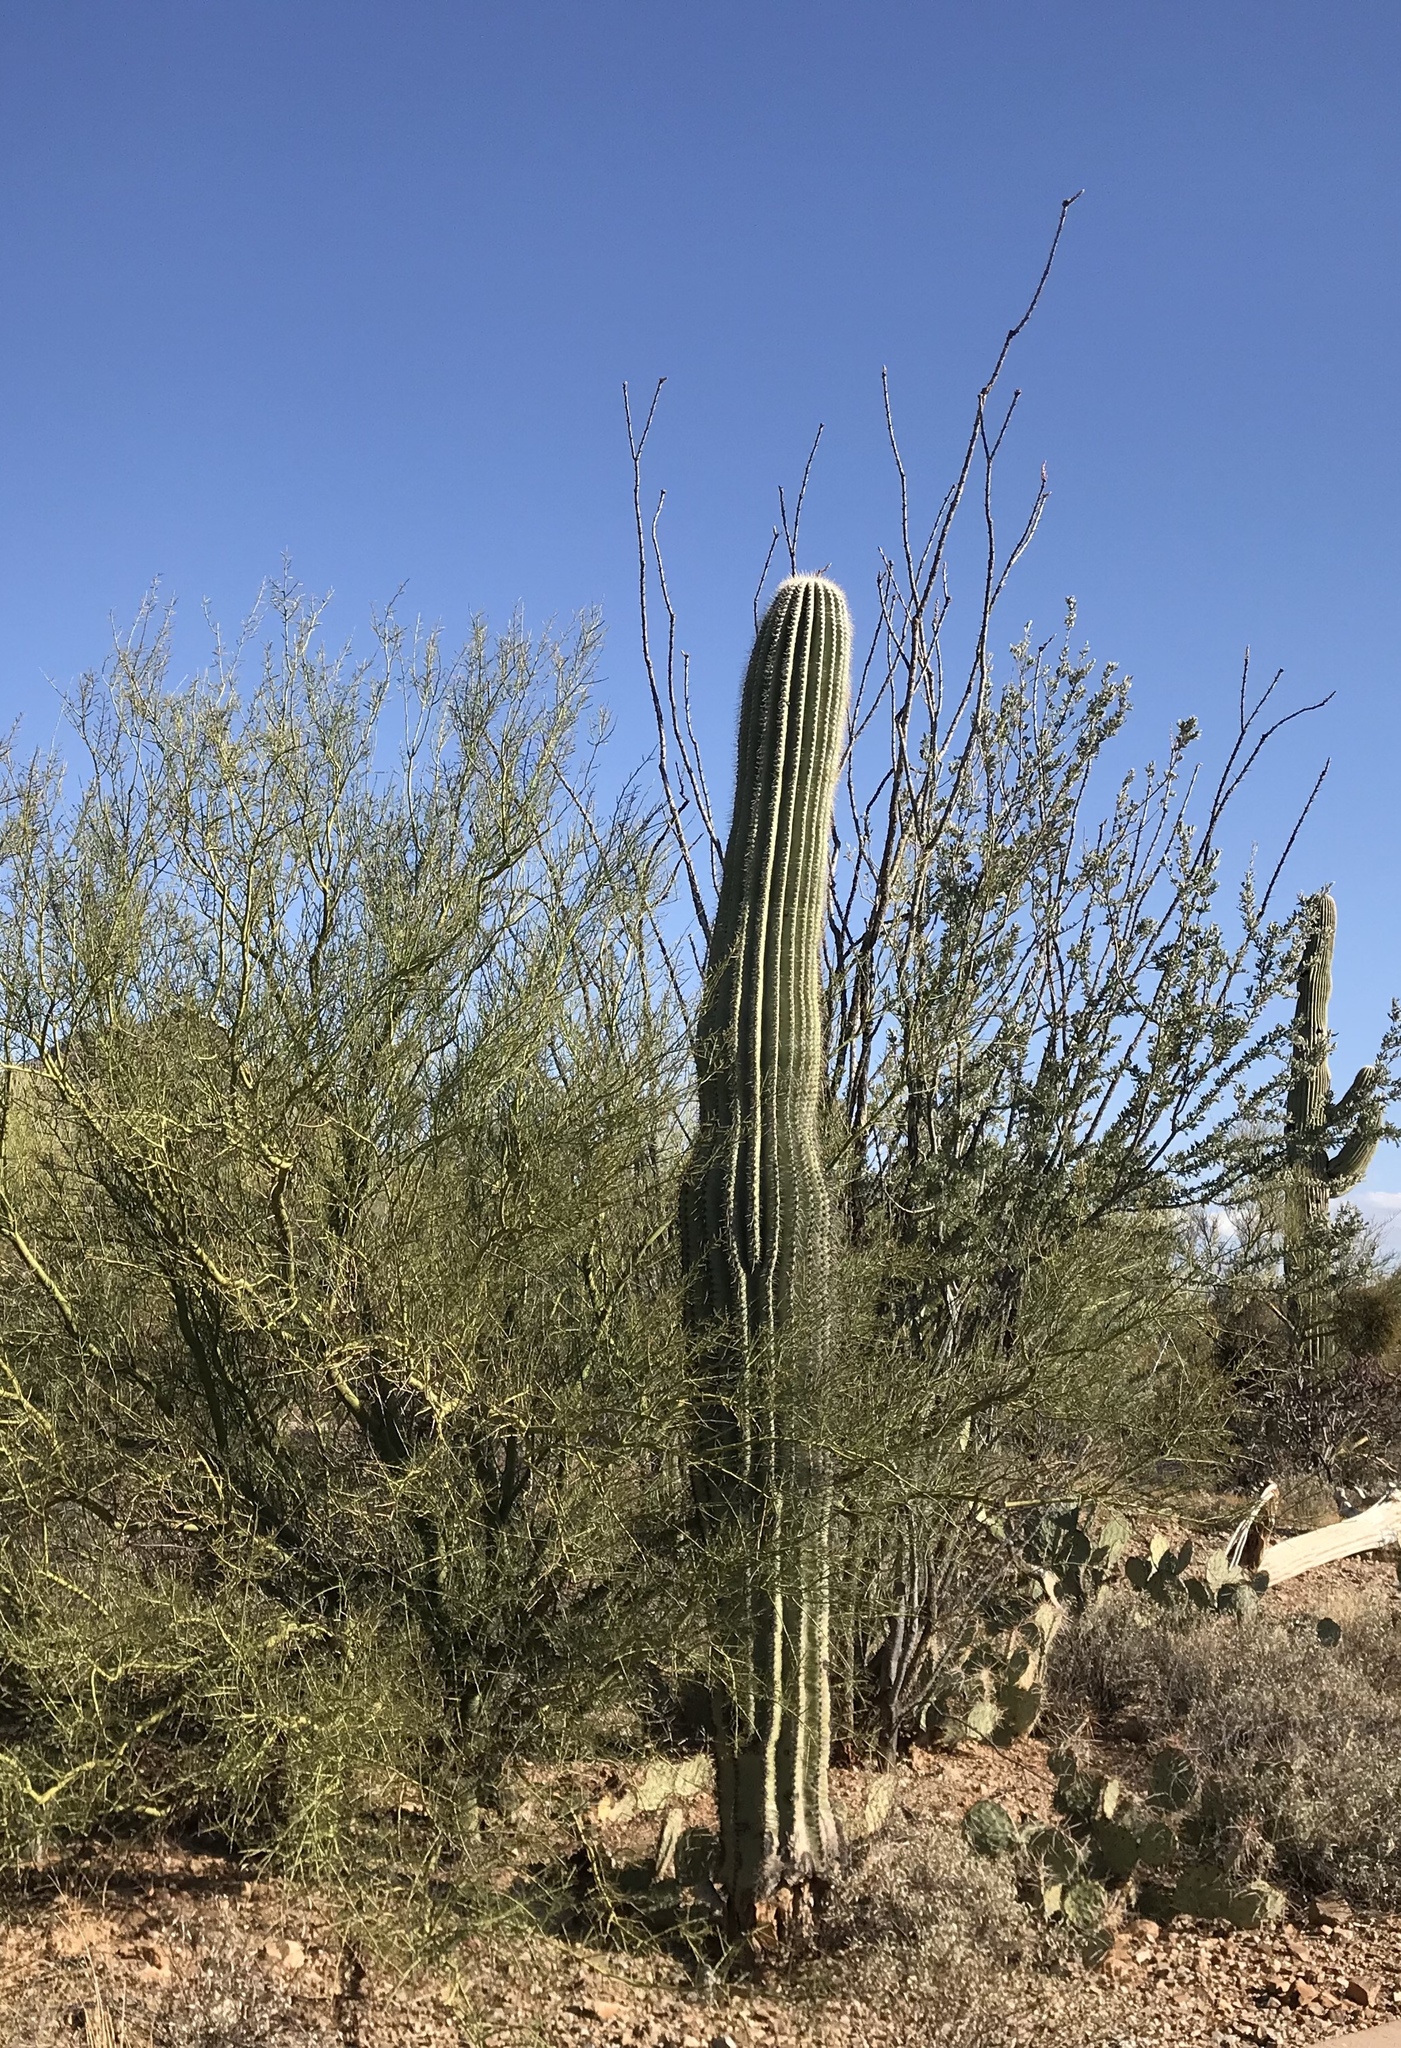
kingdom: Plantae
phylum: Tracheophyta
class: Magnoliopsida
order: Caryophyllales
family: Cactaceae
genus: Carnegiea
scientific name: Carnegiea gigantea
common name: Saguaro
